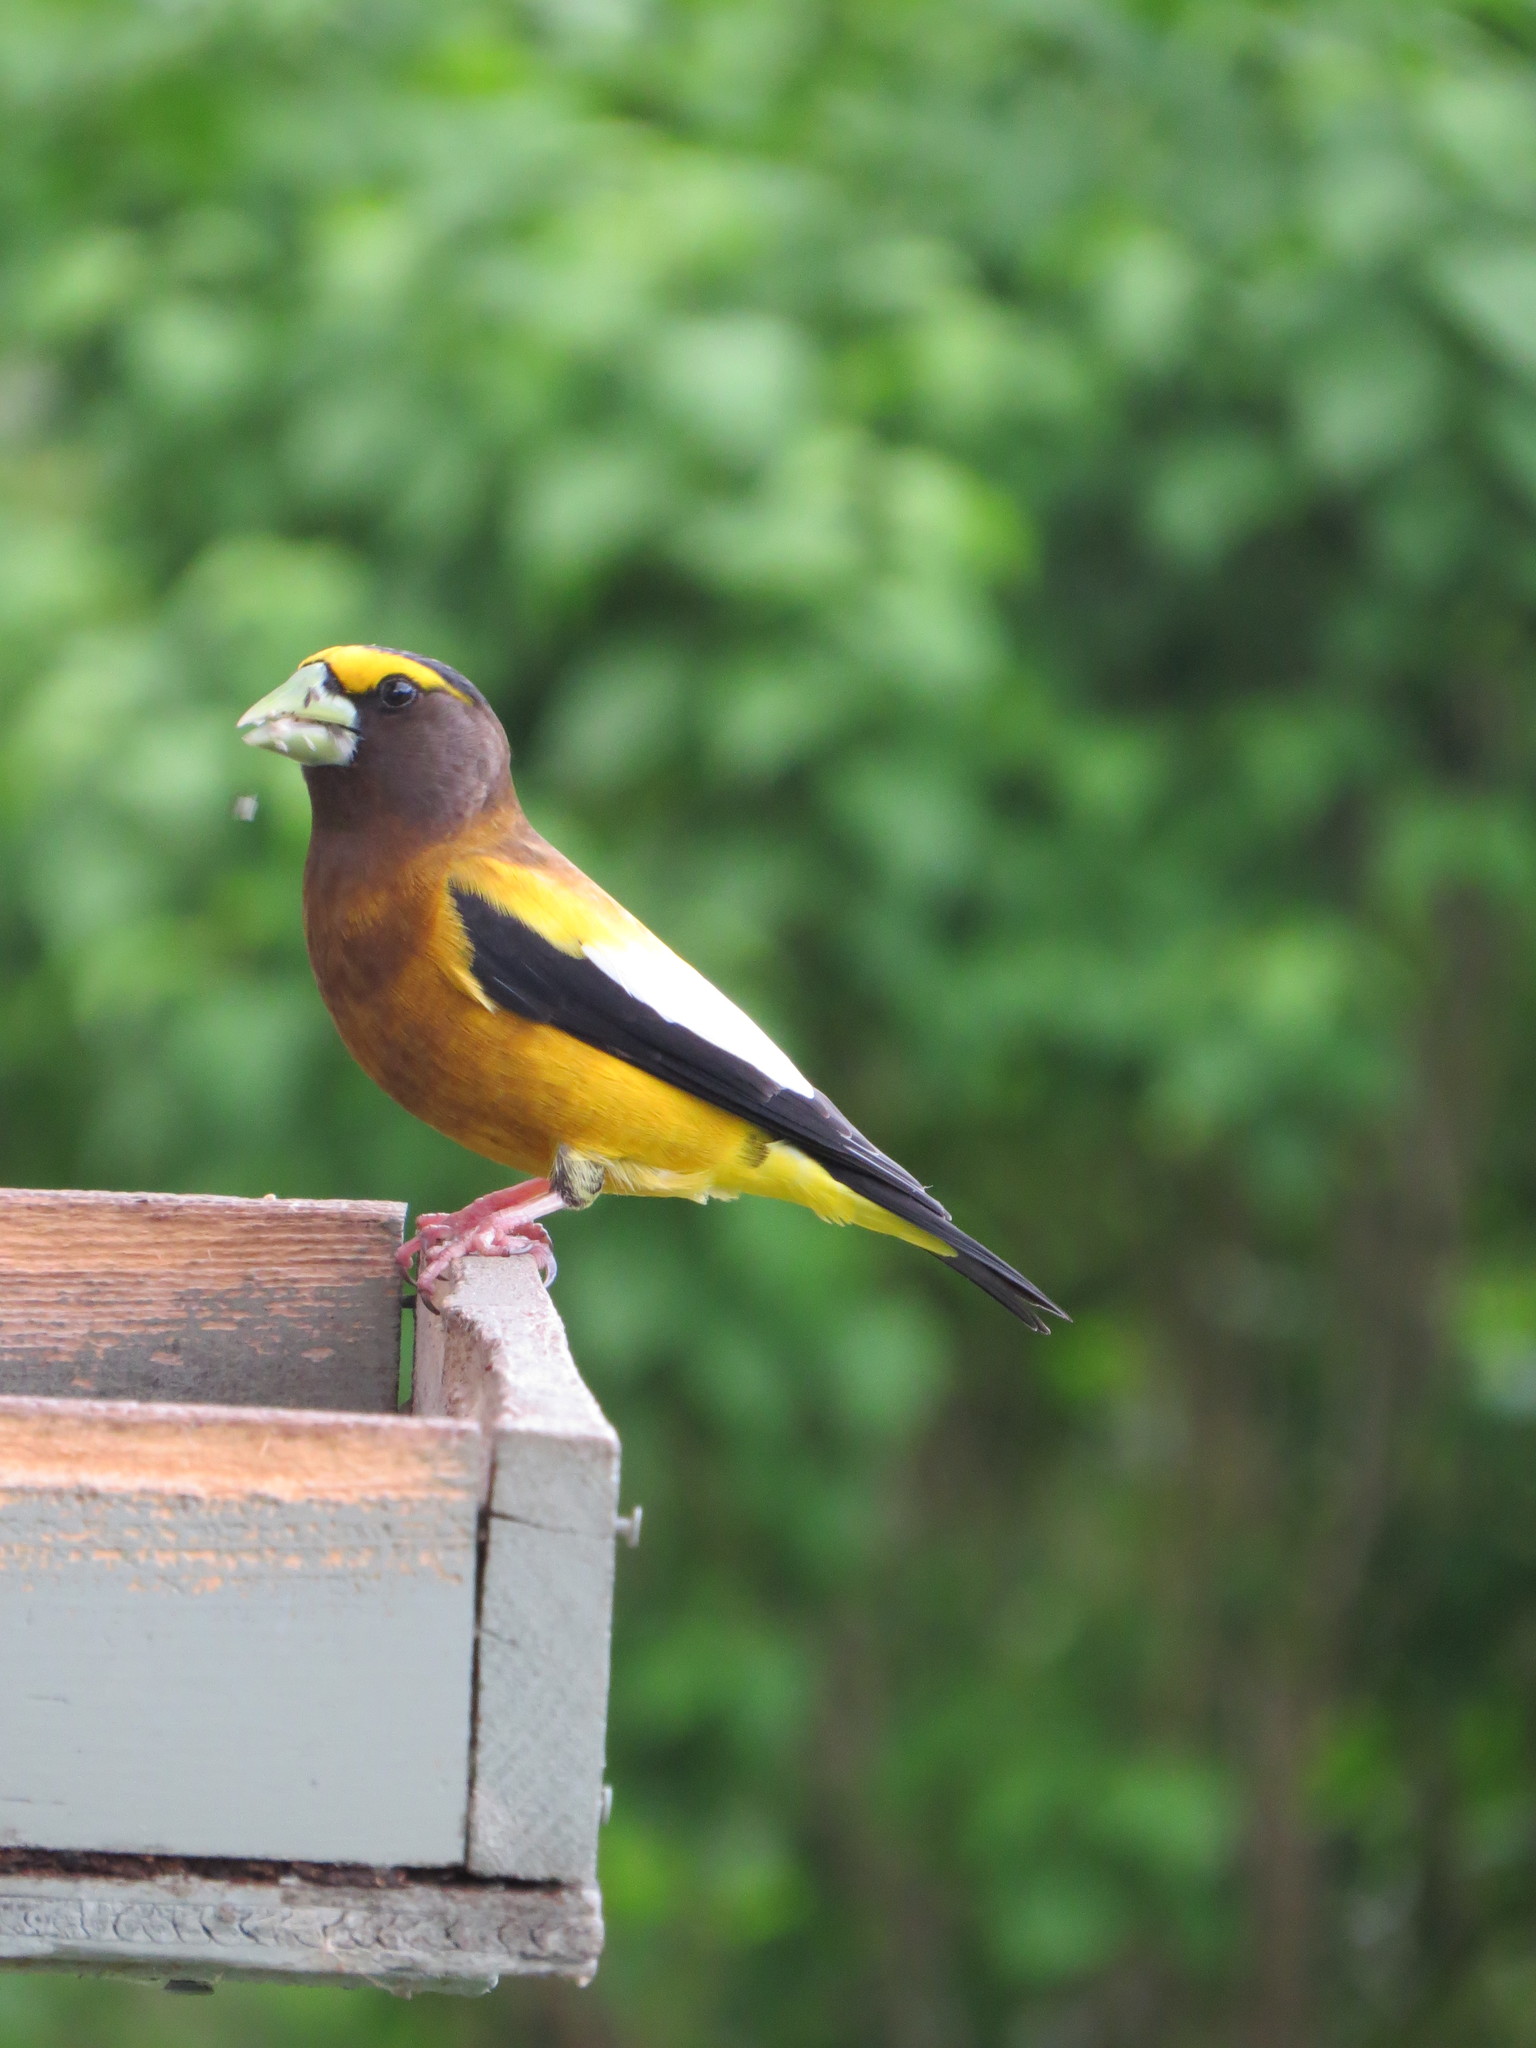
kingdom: Animalia
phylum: Chordata
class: Aves
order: Passeriformes
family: Fringillidae
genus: Hesperiphona
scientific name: Hesperiphona vespertina
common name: Evening grosbeak
